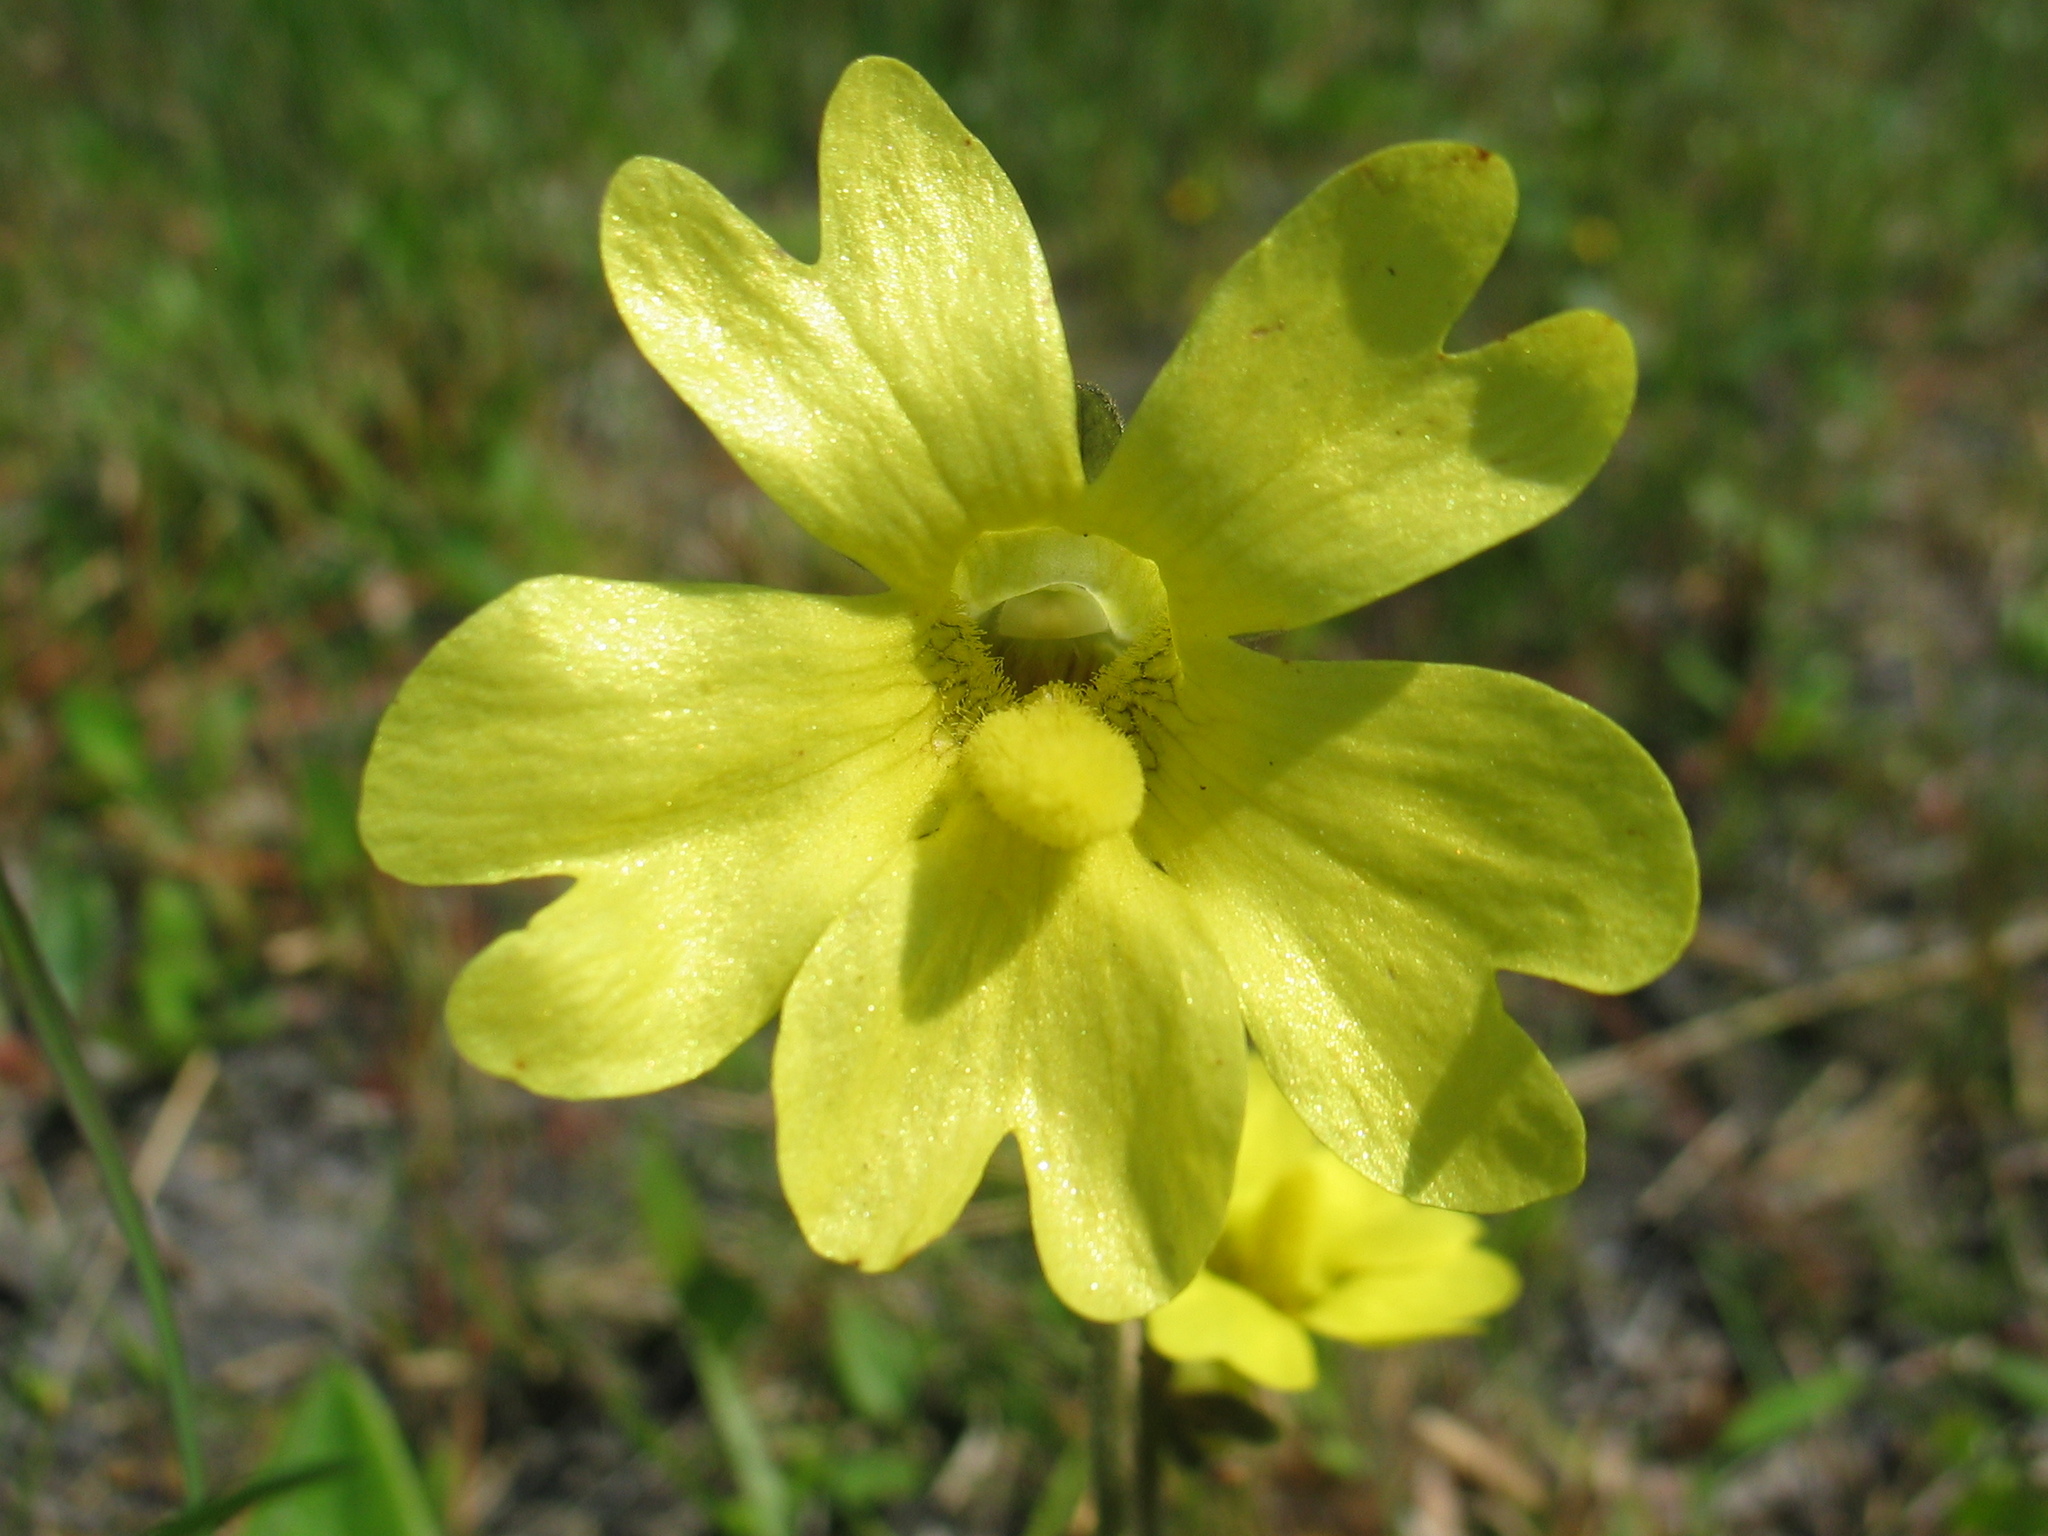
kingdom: Plantae
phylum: Tracheophyta
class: Magnoliopsida
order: Lamiales
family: Lentibulariaceae
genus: Pinguicula
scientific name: Pinguicula lutea
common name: Yellow butterwort
